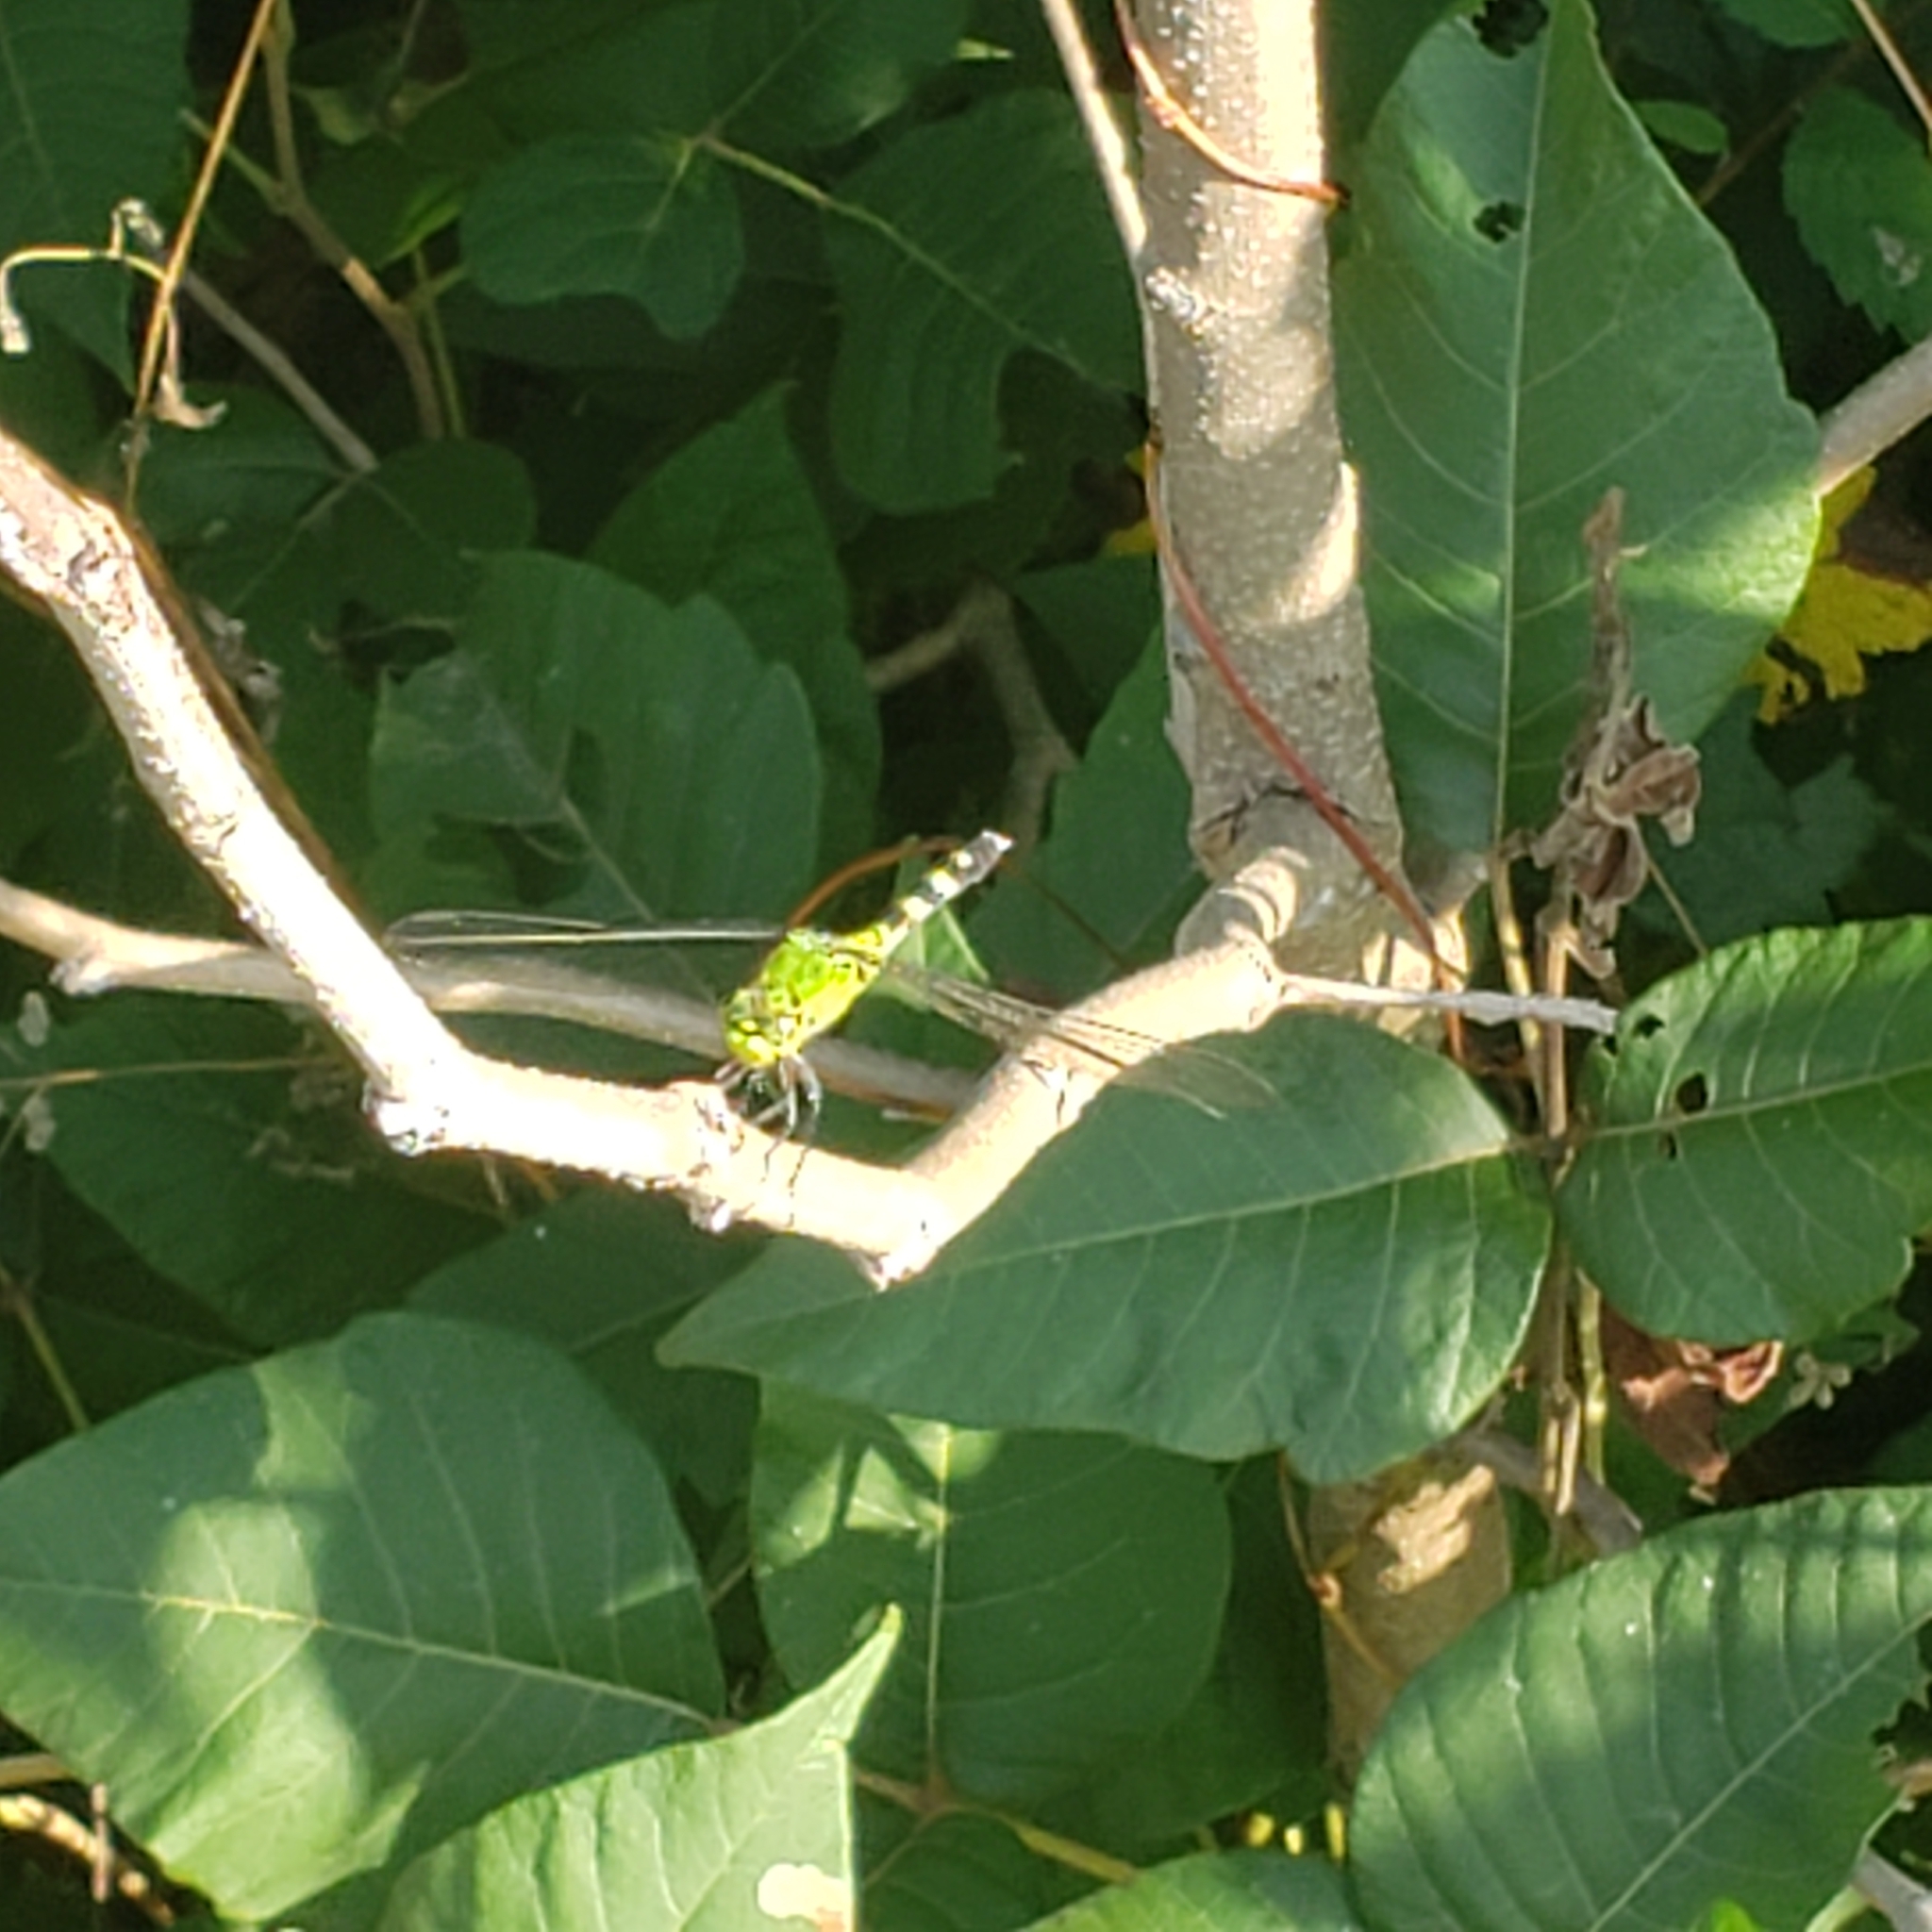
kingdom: Animalia
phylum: Arthropoda
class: Insecta
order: Odonata
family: Libellulidae
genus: Erythemis
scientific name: Erythemis simplicicollis
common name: Eastern pondhawk
